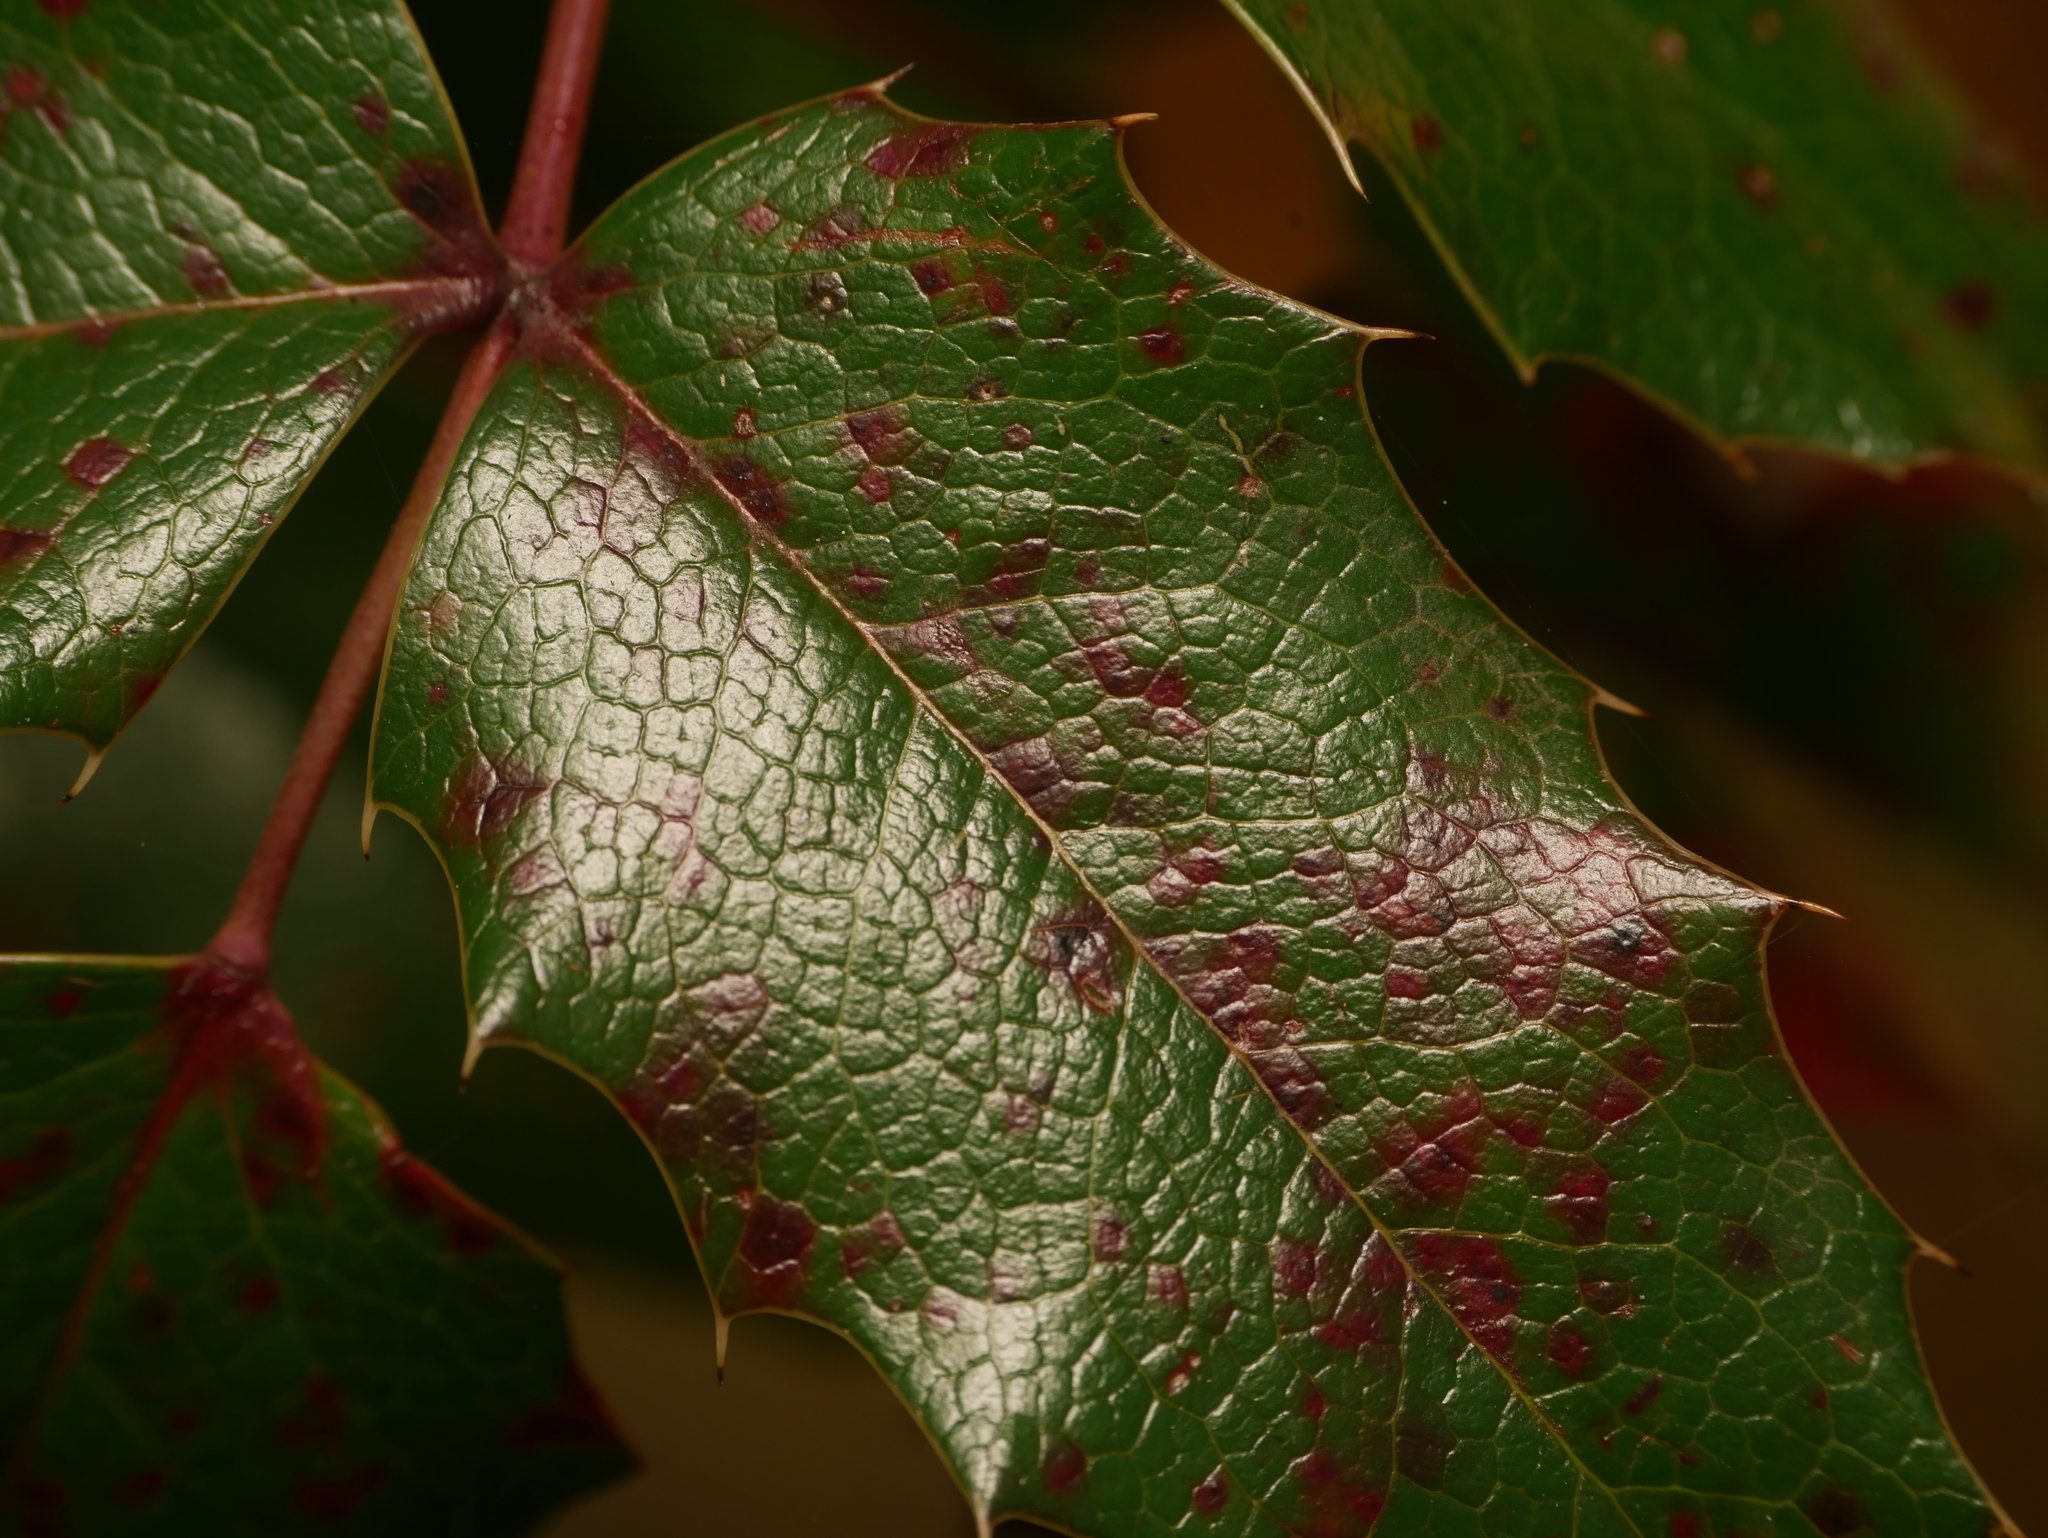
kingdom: Fungi
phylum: Basidiomycota
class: Pucciniomycetes
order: Pucciniales
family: Pucciniaceae
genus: Cumminsiella
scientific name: Cumminsiella mirabilissima
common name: Mahonia rust
